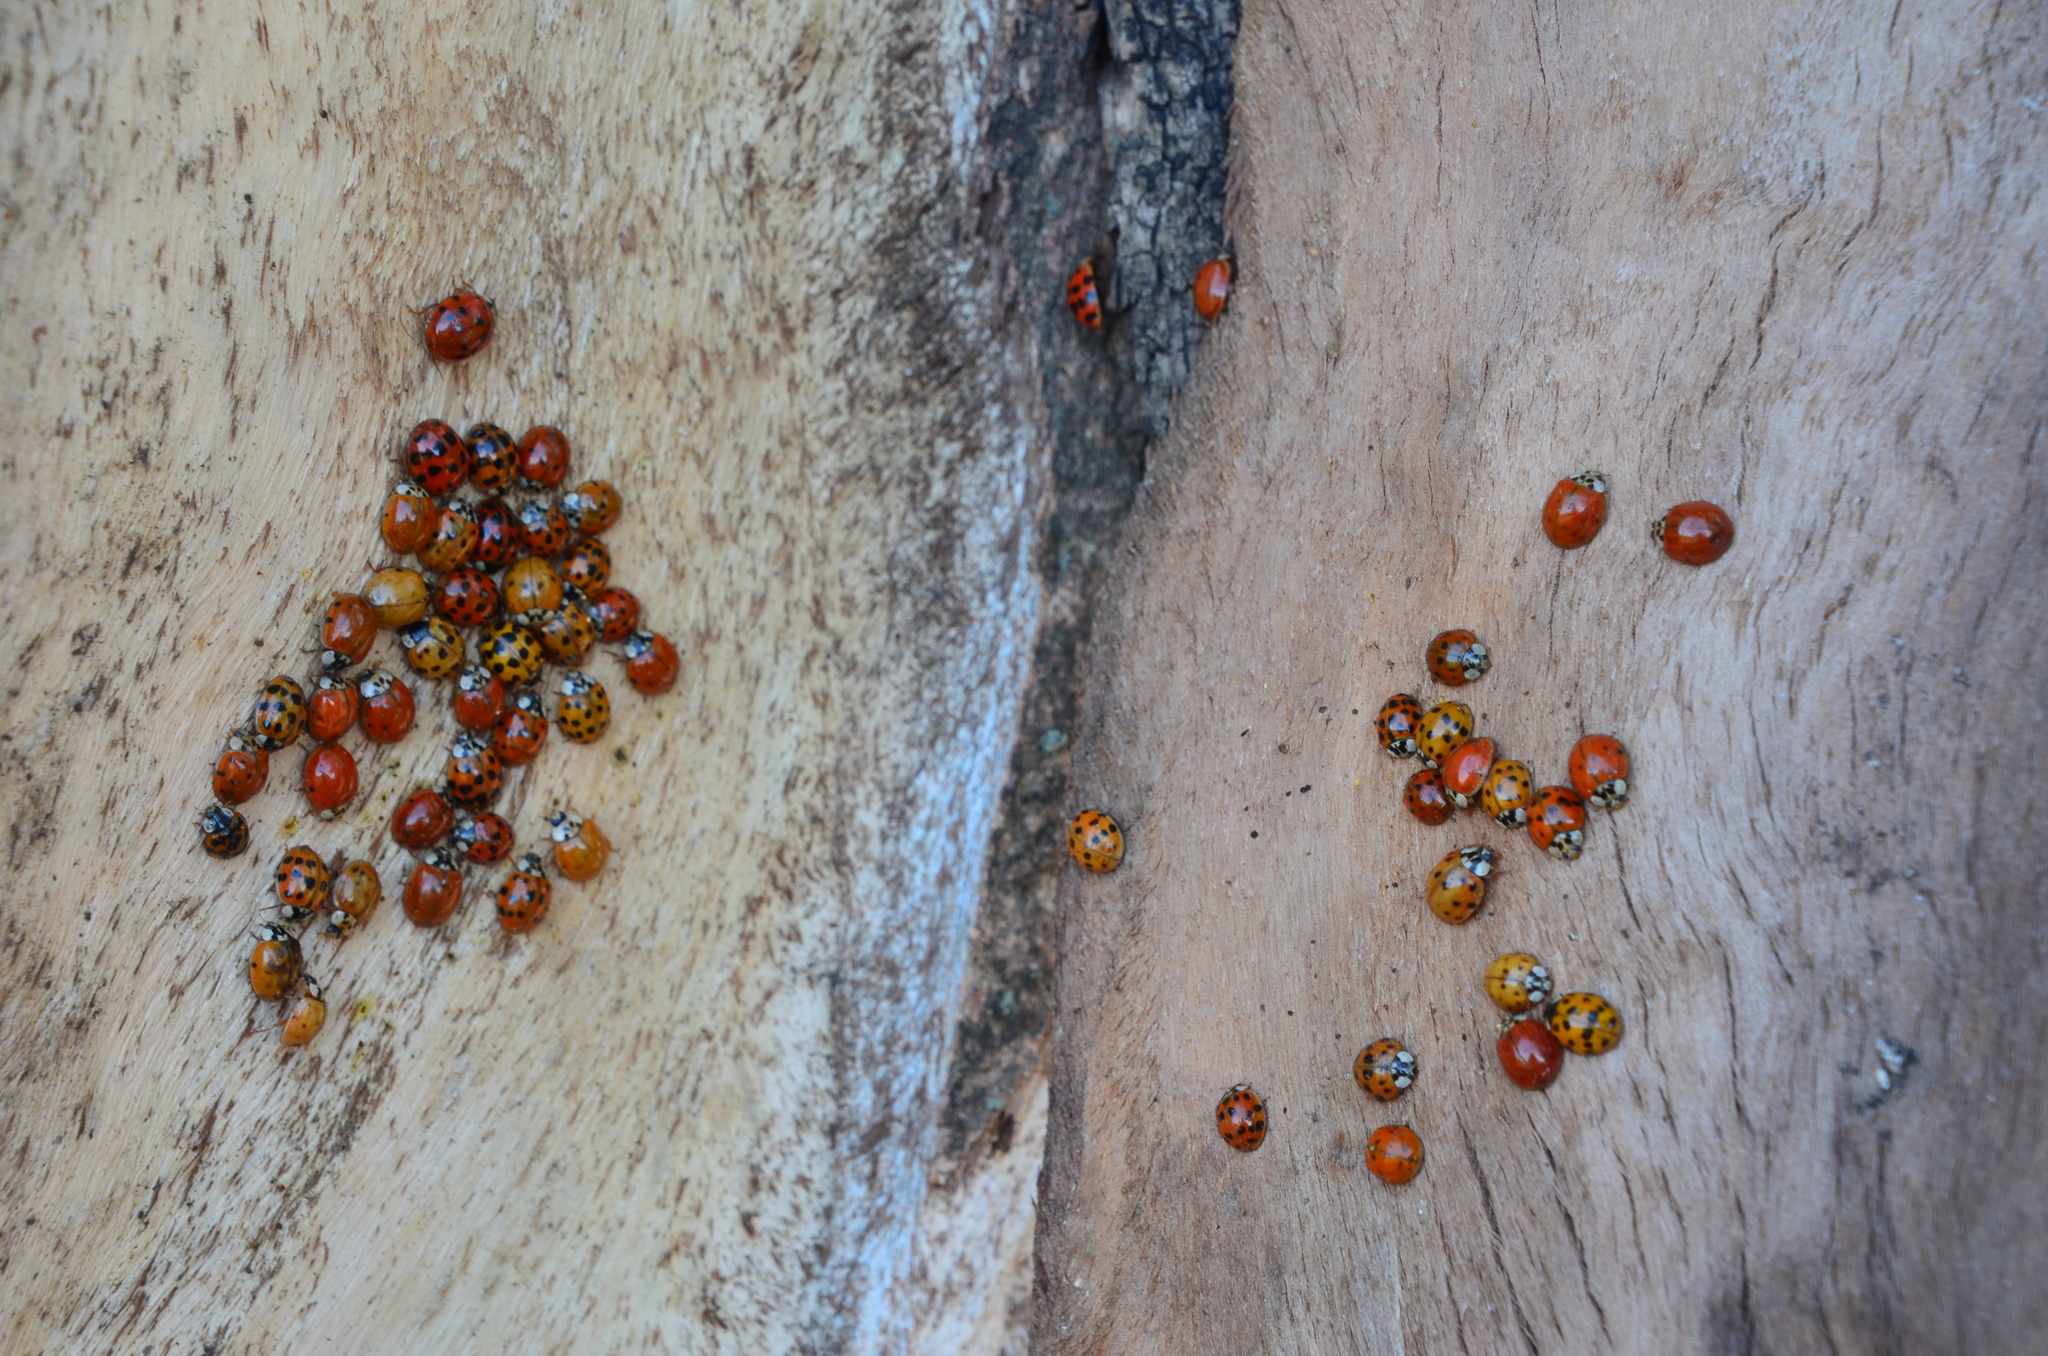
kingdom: Animalia
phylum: Arthropoda
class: Insecta
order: Coleoptera
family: Coccinellidae
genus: Harmonia
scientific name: Harmonia axyridis
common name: Harlequin ladybird
